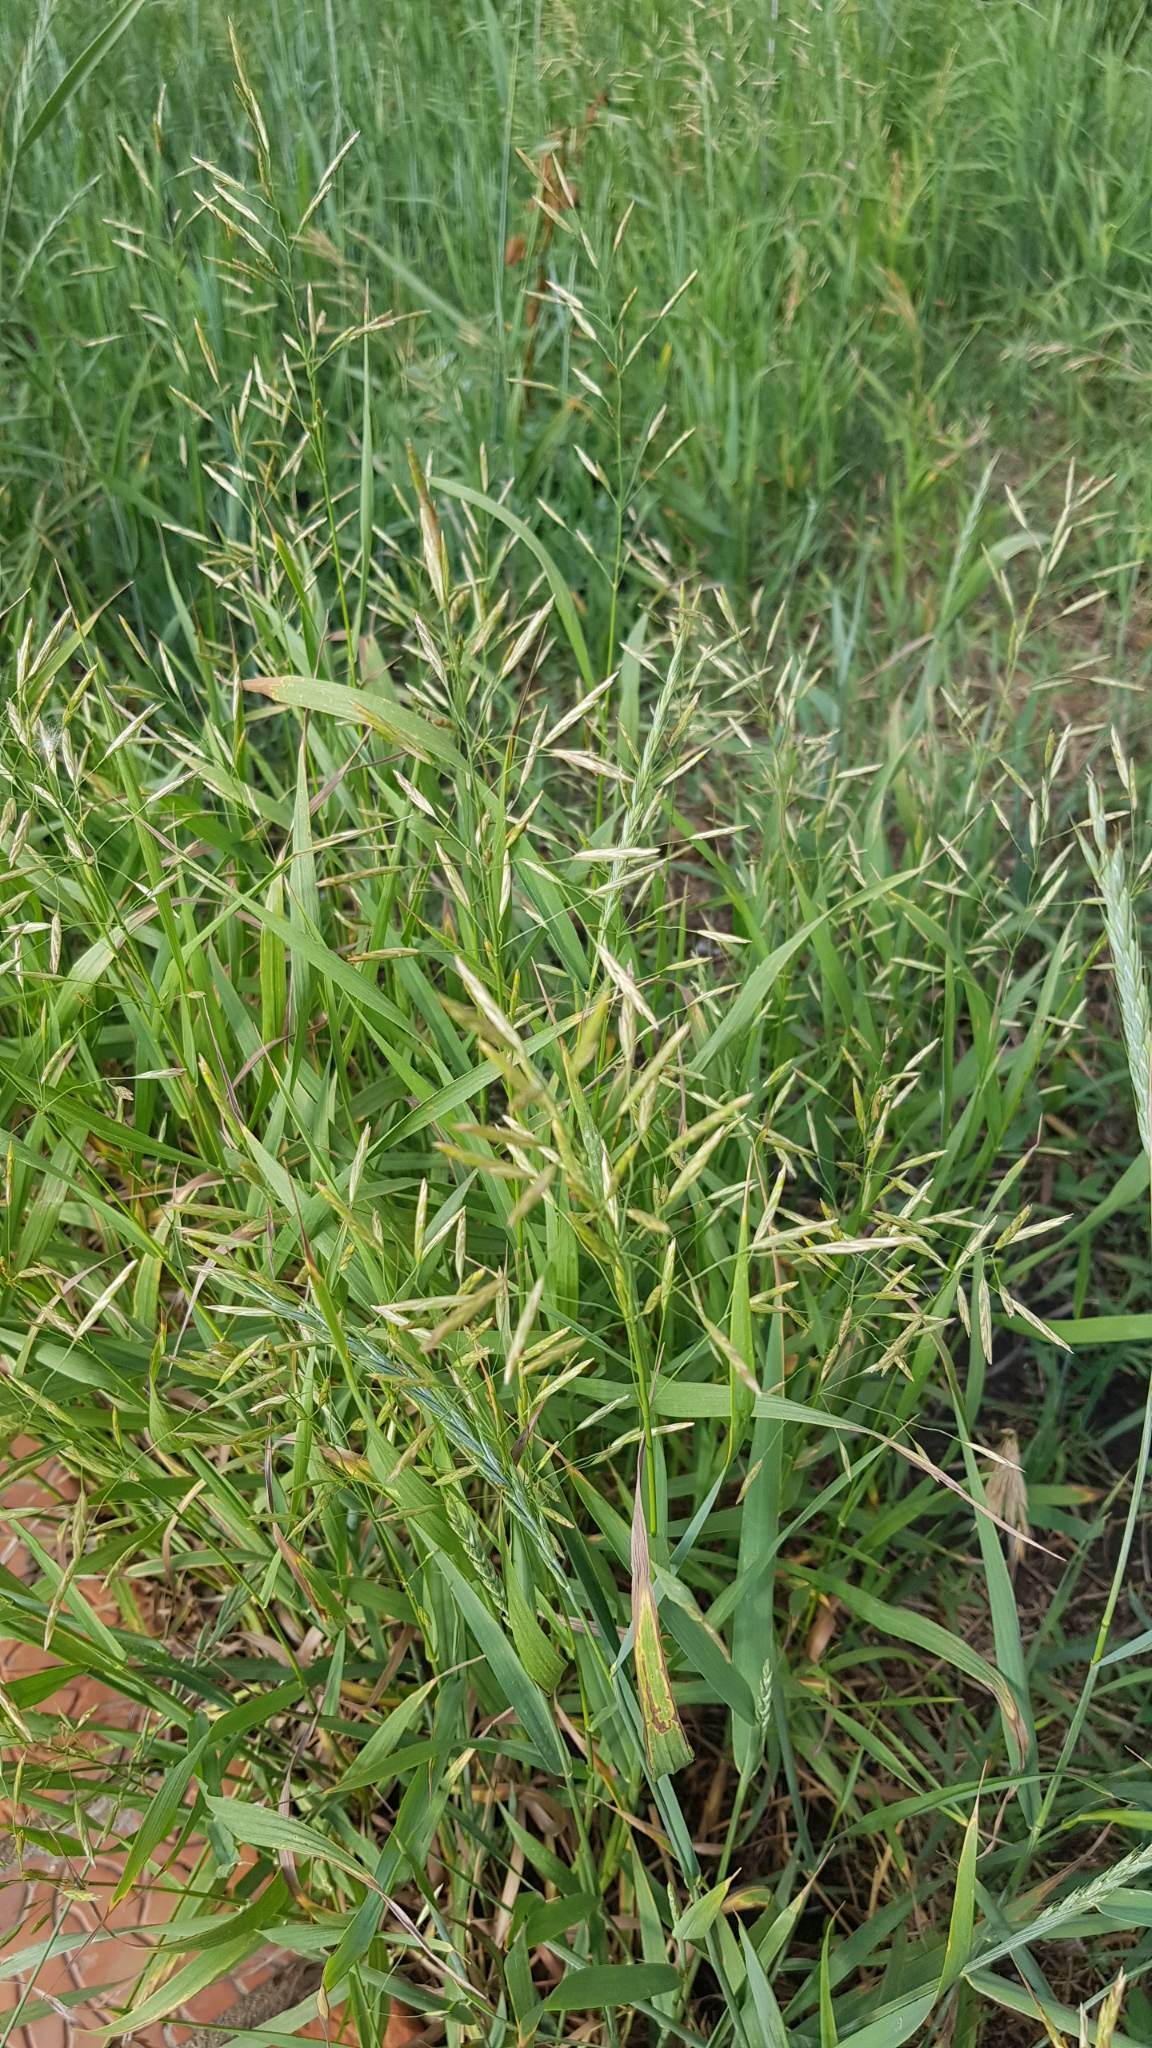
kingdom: Plantae
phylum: Tracheophyta
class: Liliopsida
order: Poales
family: Poaceae
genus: Bromus
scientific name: Bromus inermis
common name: Smooth brome
